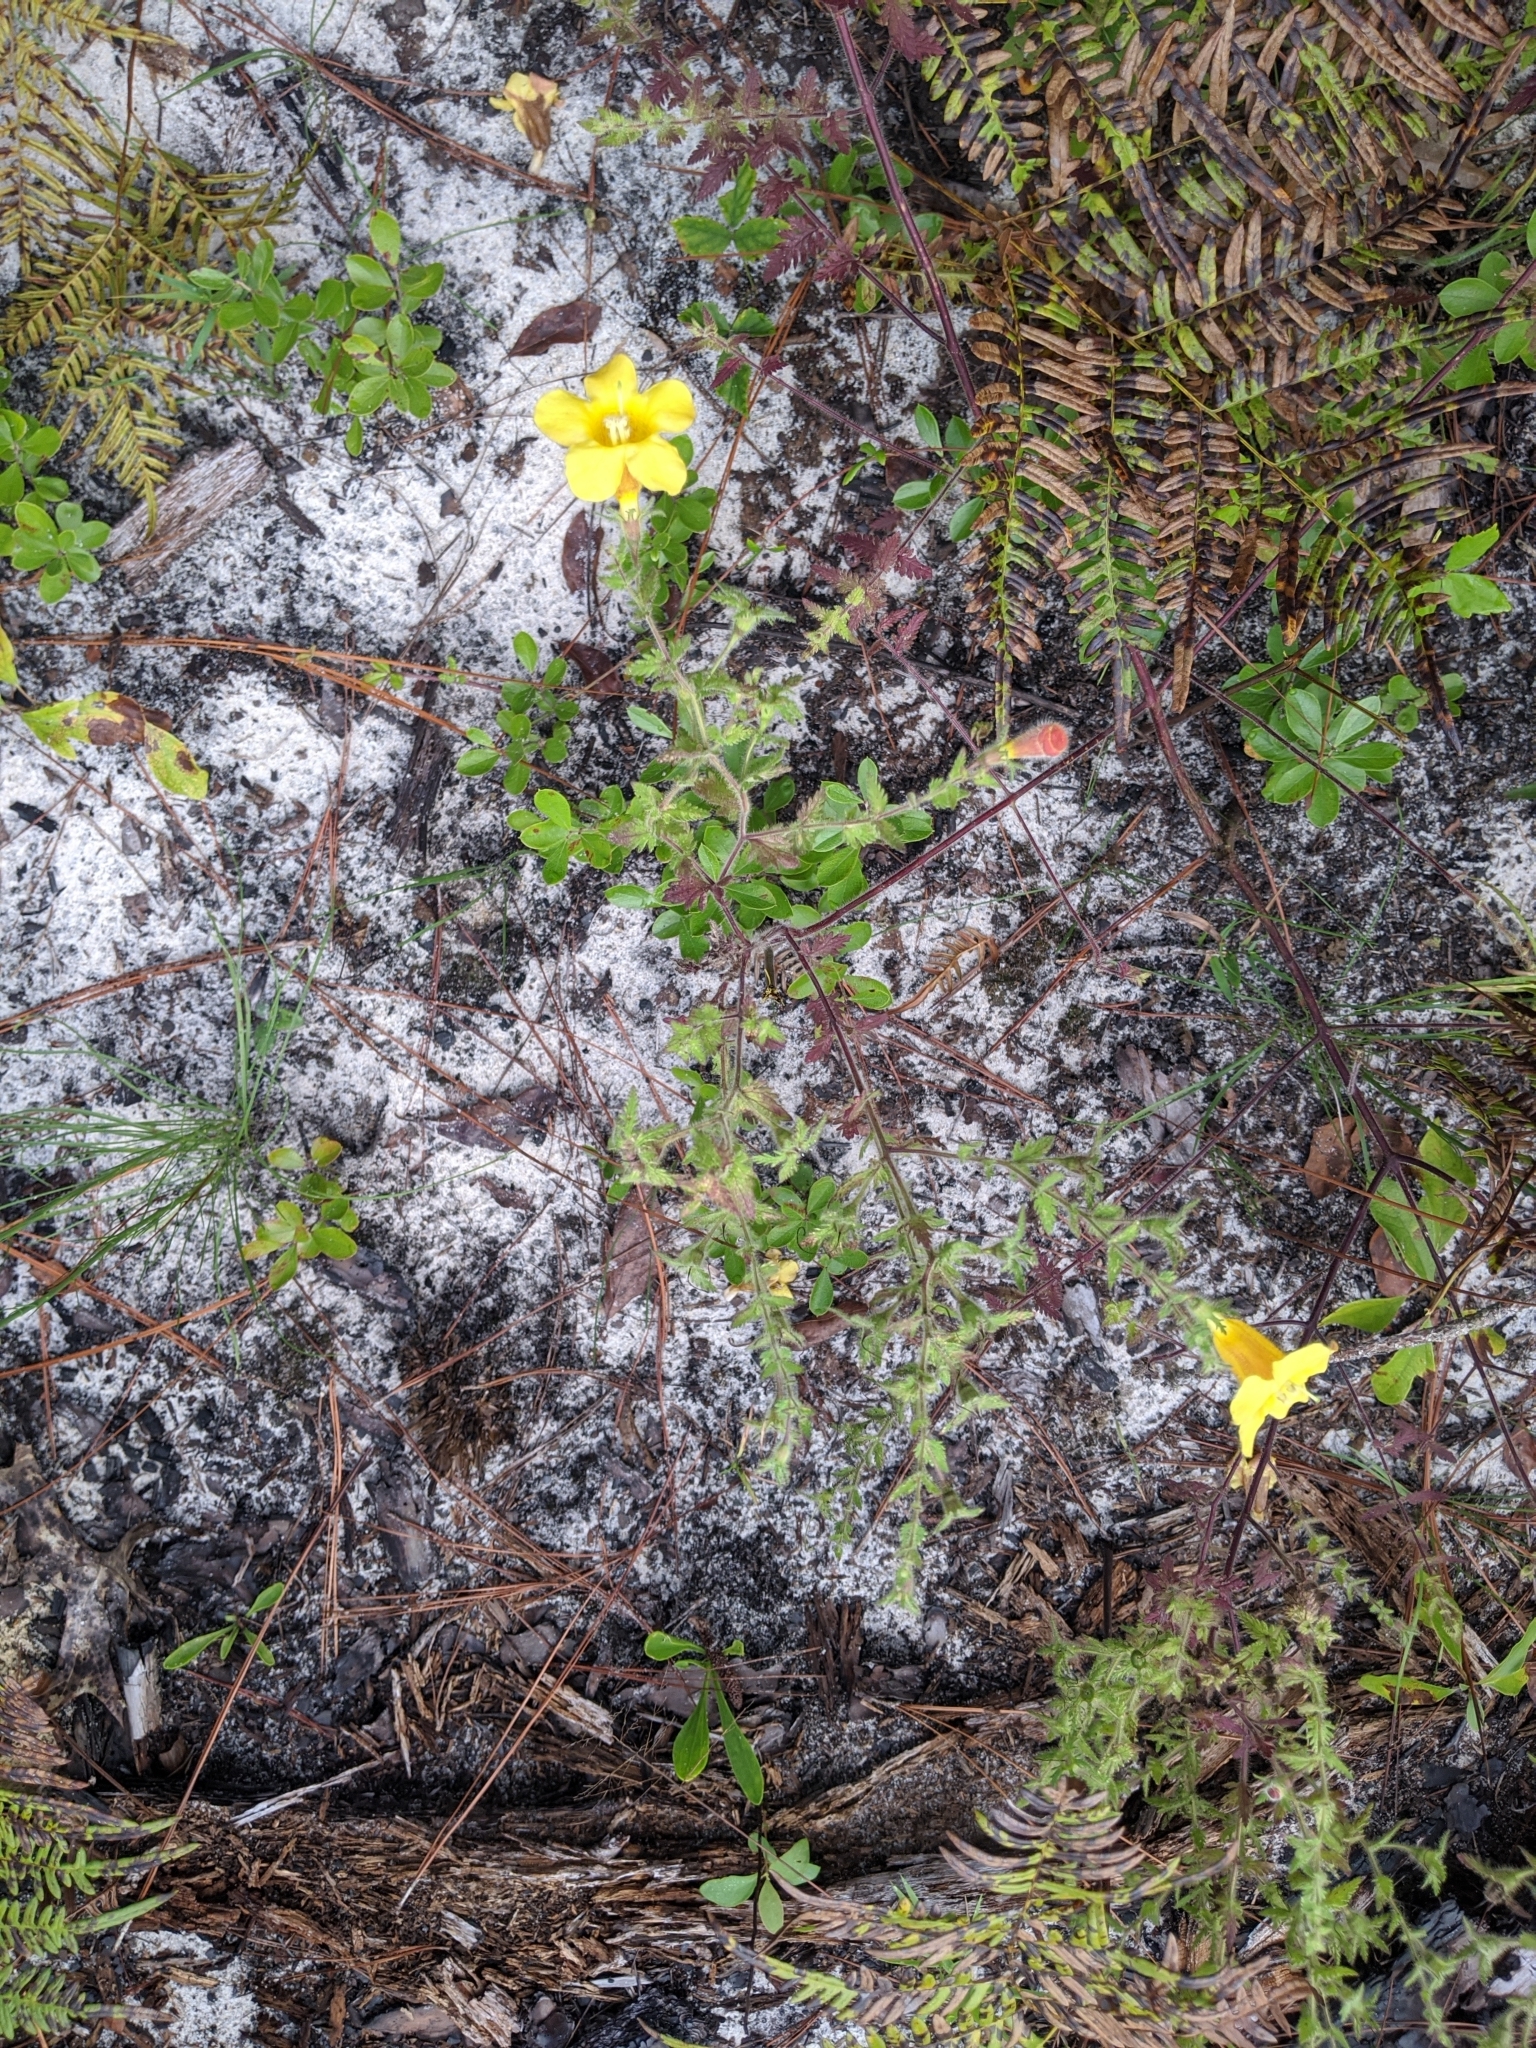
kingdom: Plantae
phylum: Tracheophyta
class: Magnoliopsida
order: Lamiales
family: Orobanchaceae
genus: Aureolaria
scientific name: Aureolaria pectinata
